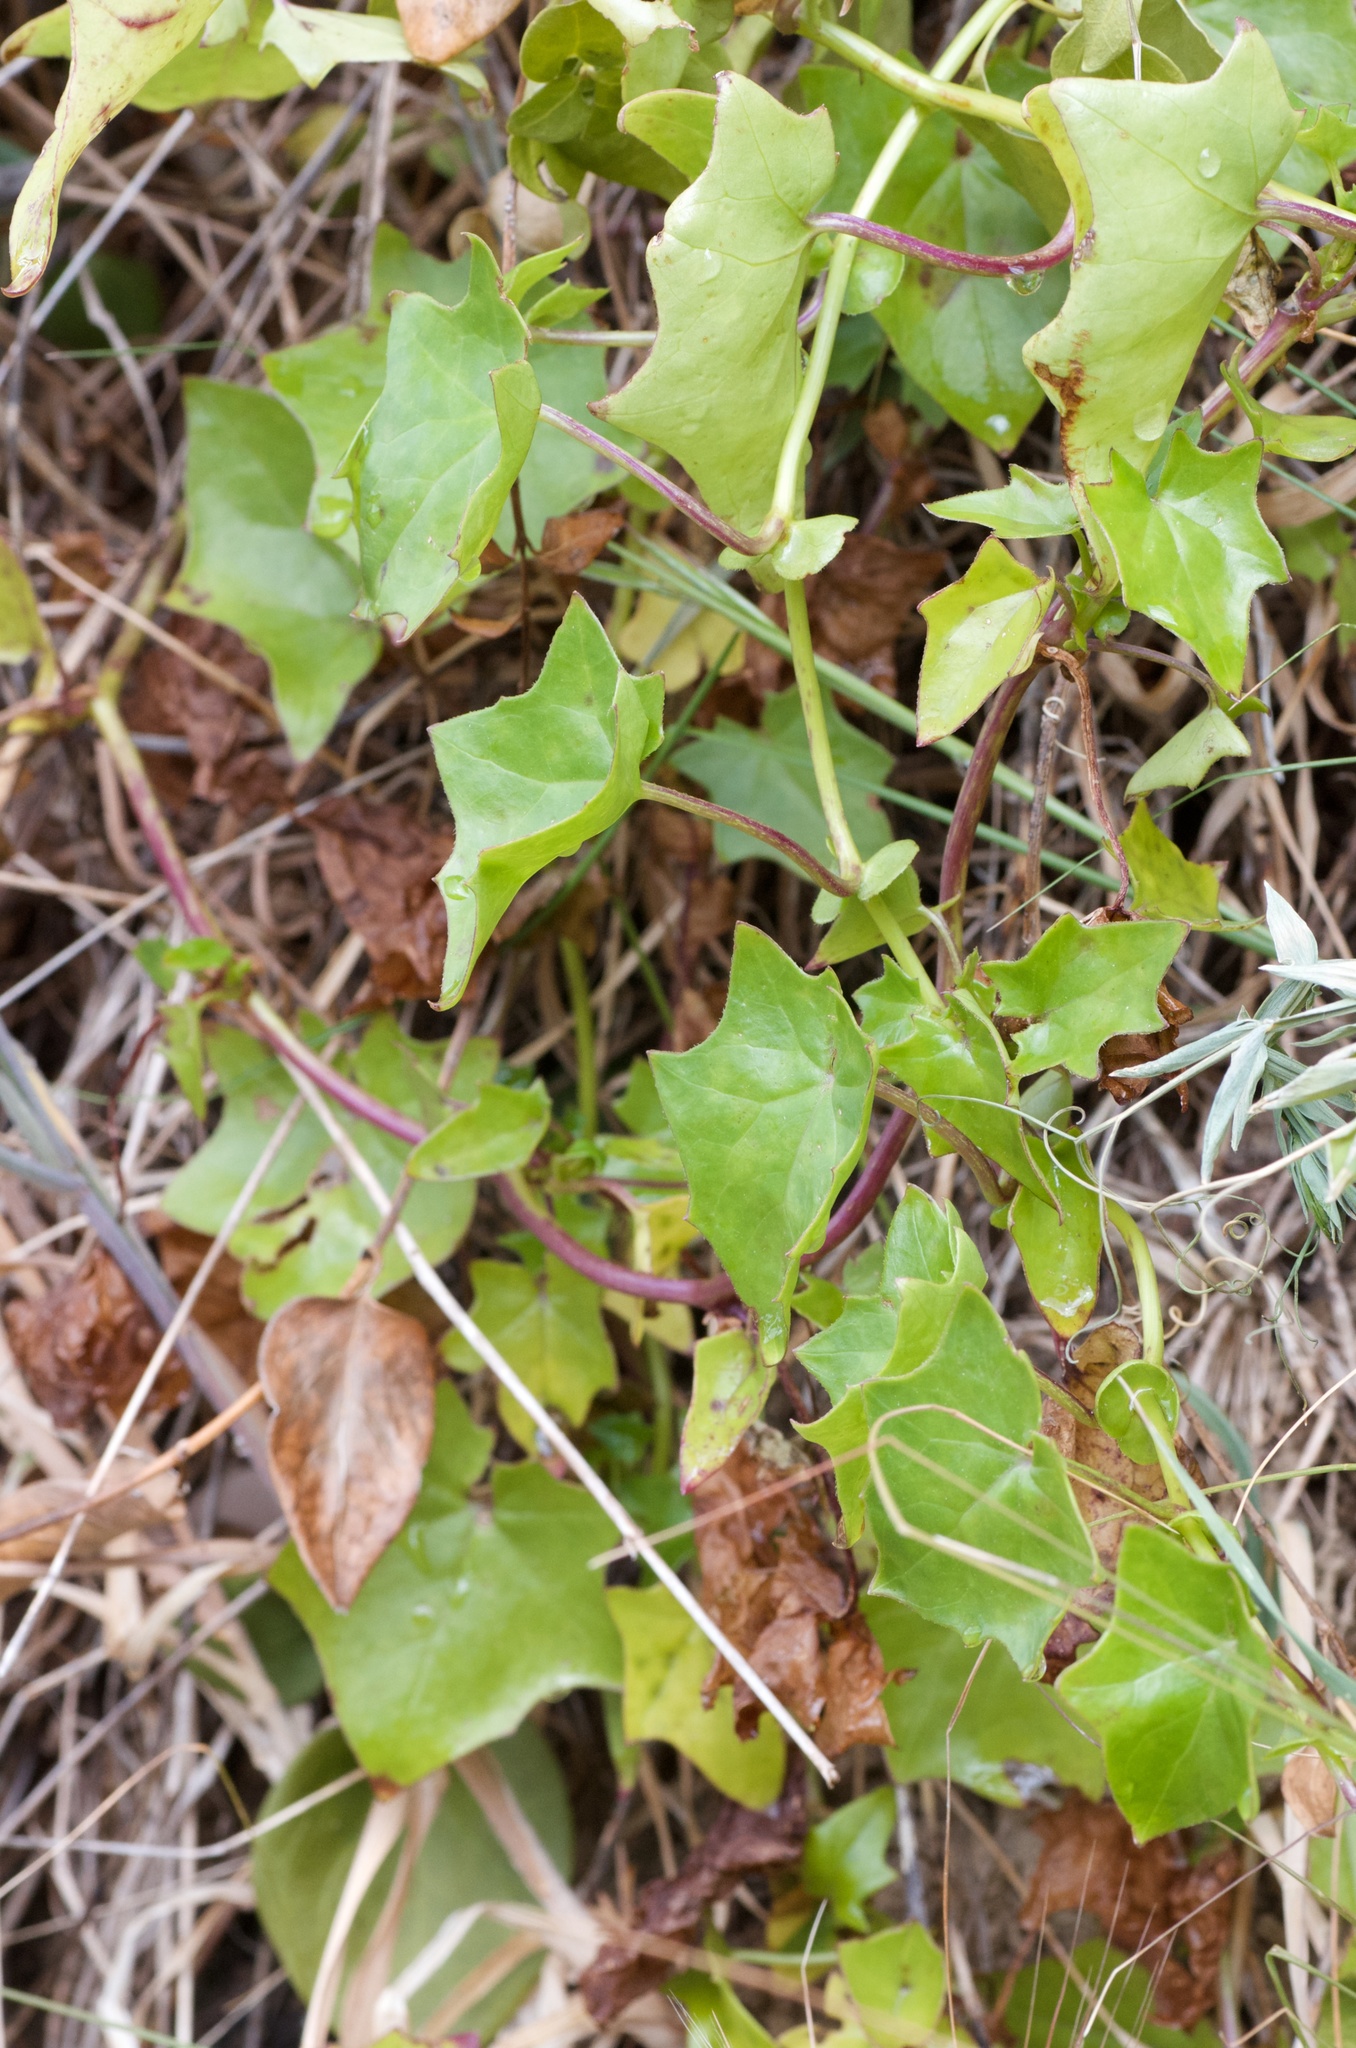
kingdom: Plantae
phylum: Tracheophyta
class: Magnoliopsida
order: Asterales
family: Asteraceae
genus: Delairea
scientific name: Delairea odorata
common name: Cape-ivy
